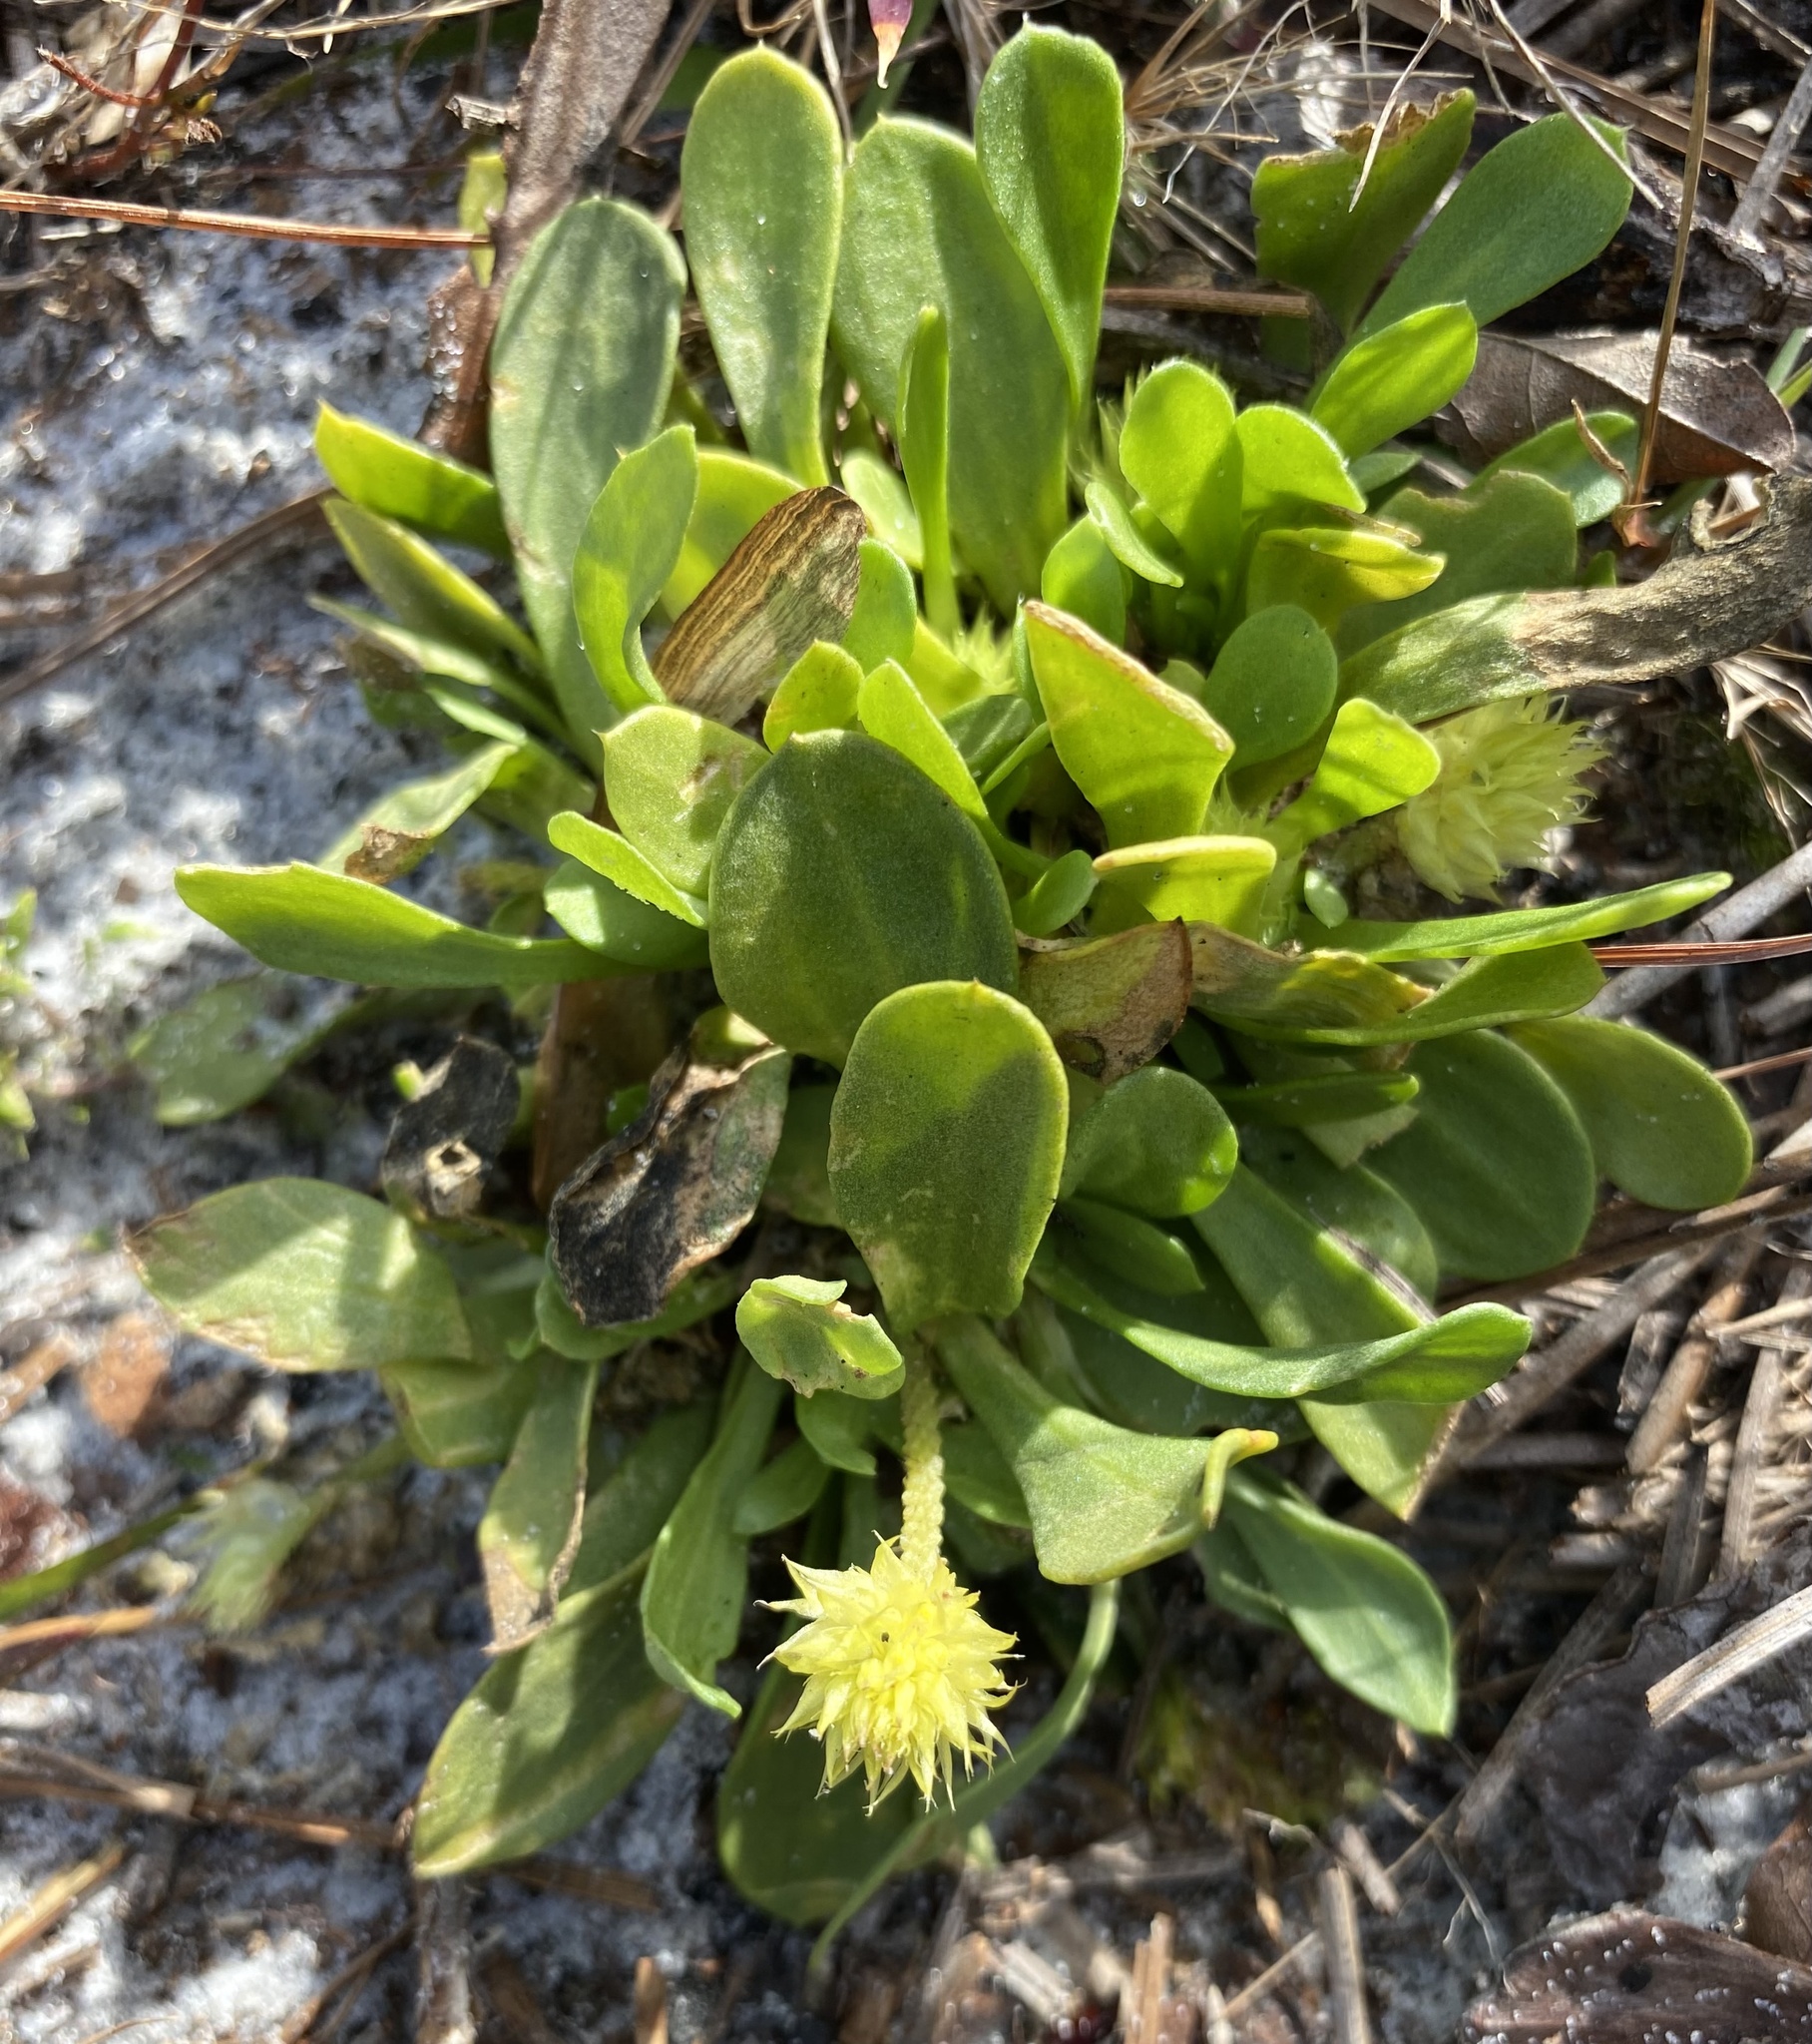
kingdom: Plantae
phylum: Tracheophyta
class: Magnoliopsida
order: Fabales
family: Polygalaceae
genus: Polygala
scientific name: Polygala nana
